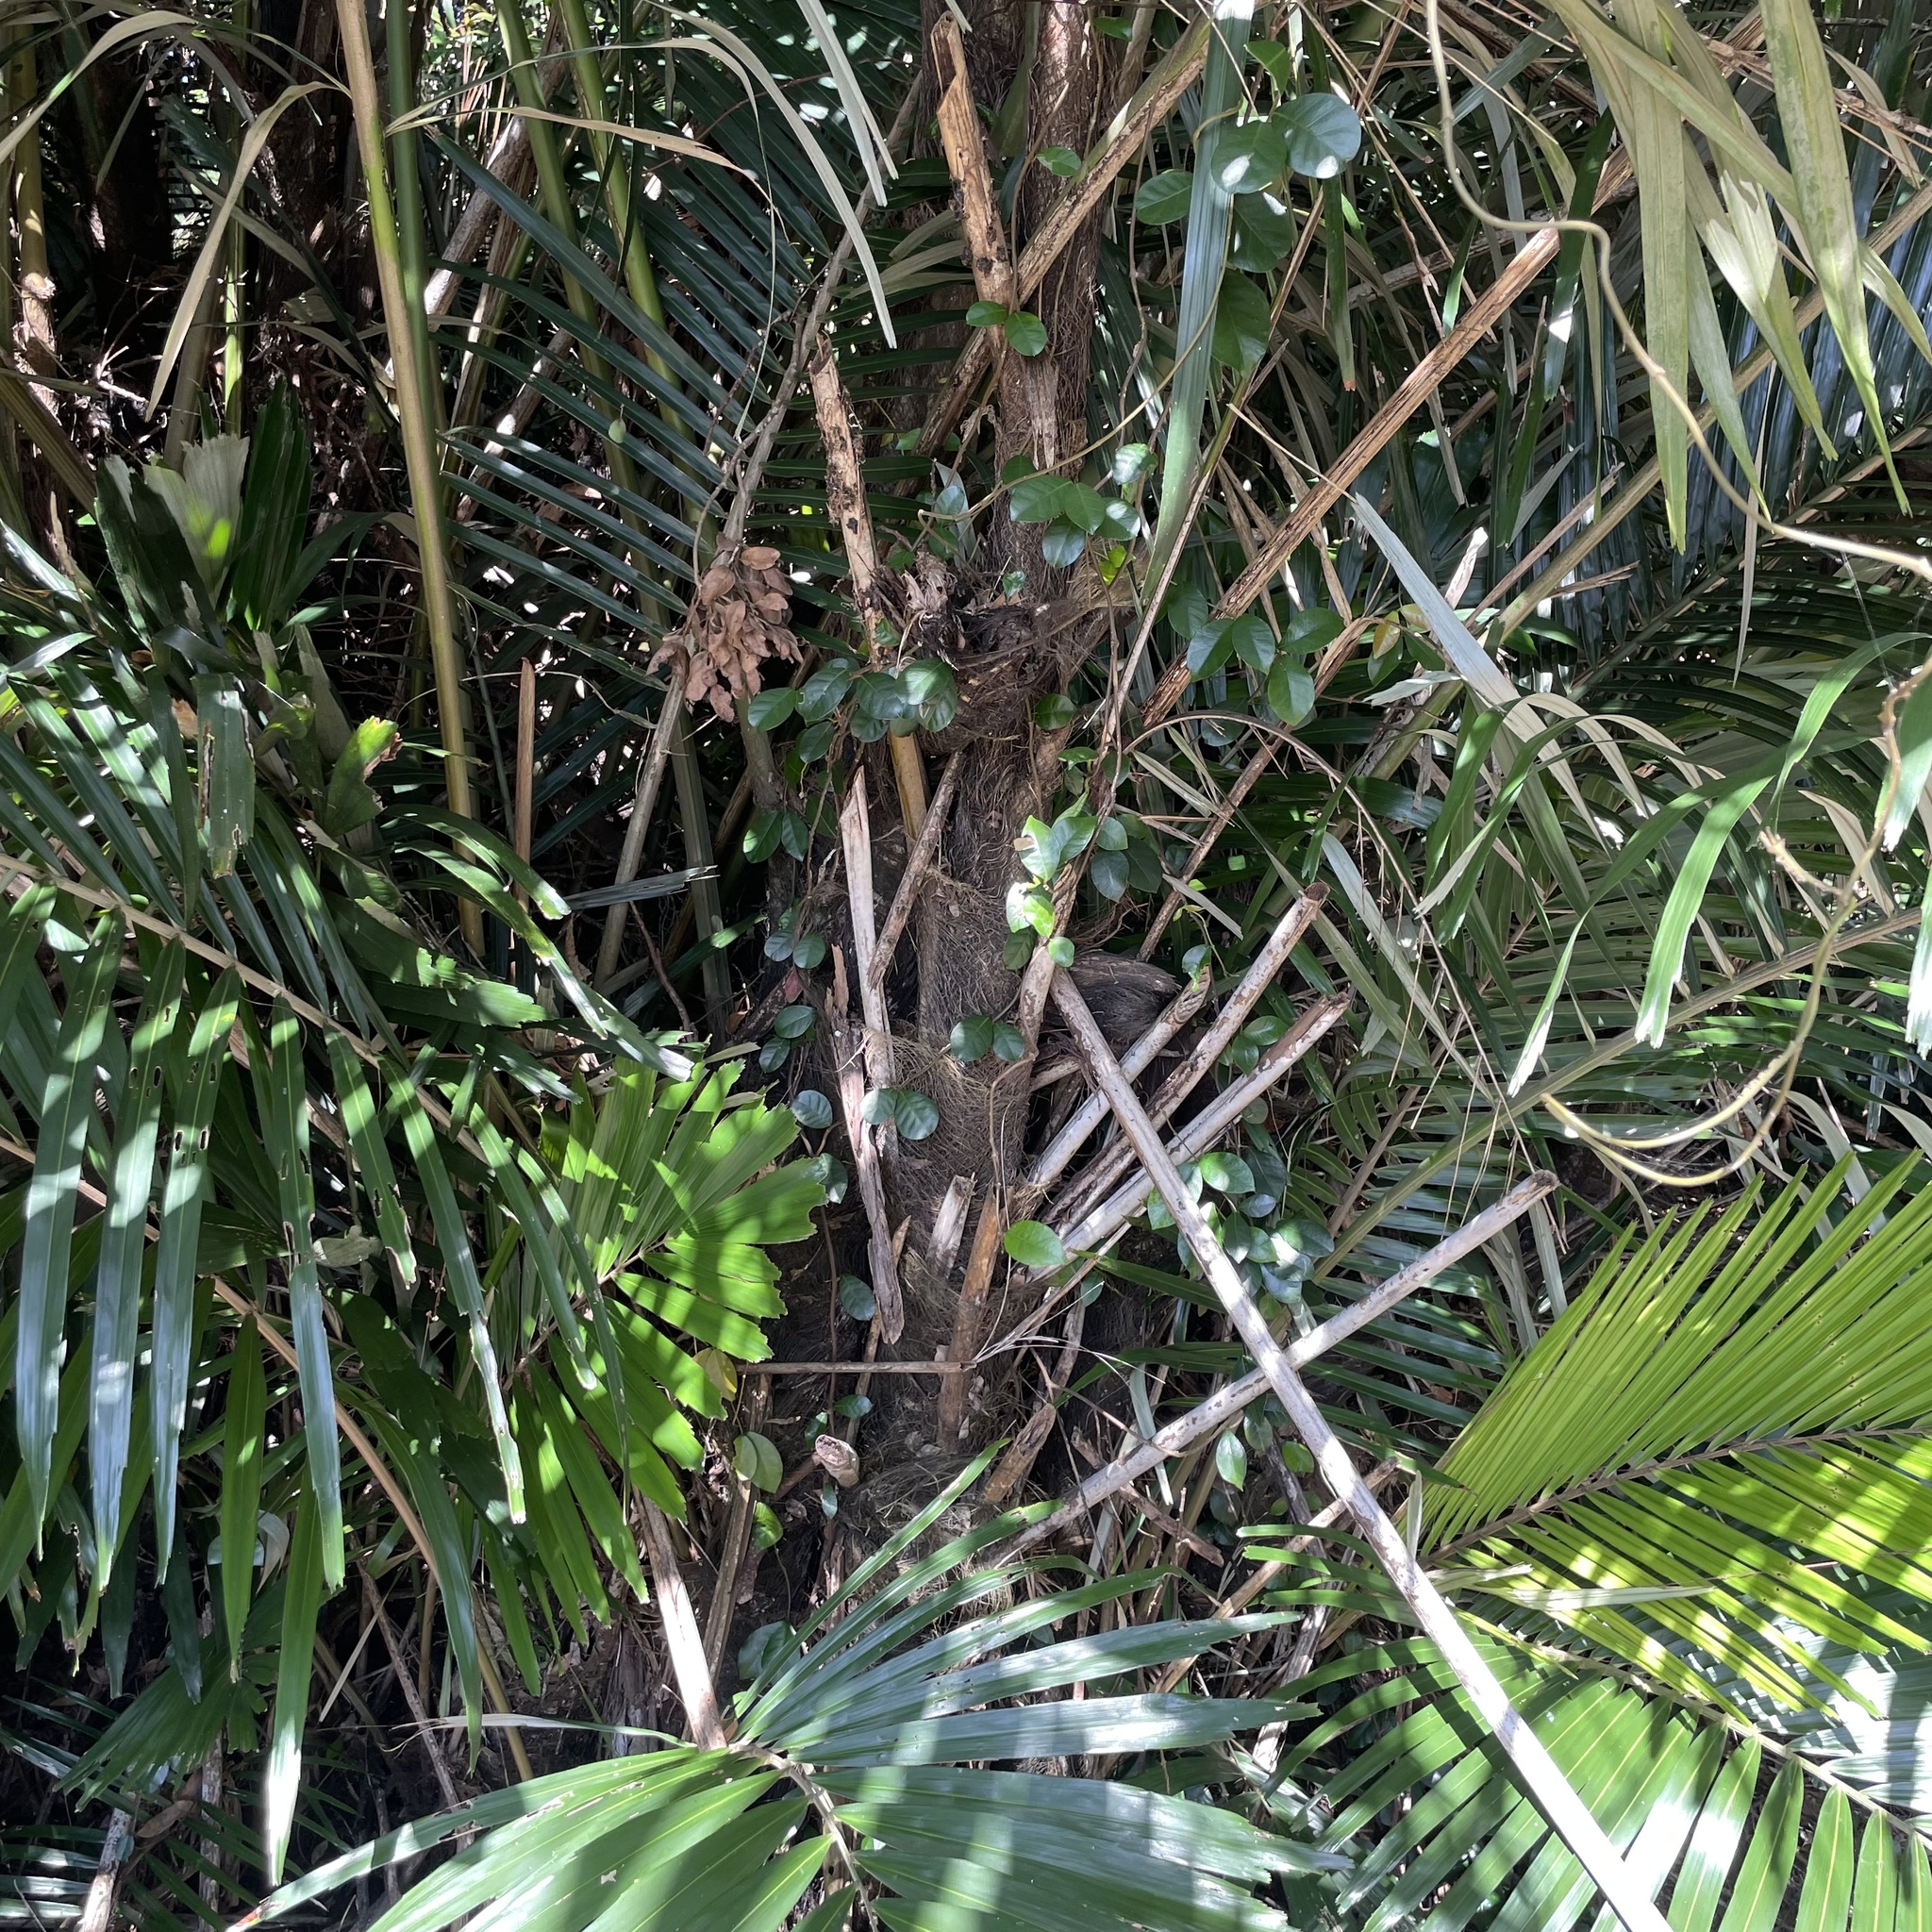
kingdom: Plantae
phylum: Tracheophyta
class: Liliopsida
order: Arecales
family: Arecaceae
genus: Arenga
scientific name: Arenga ryukyuensis
